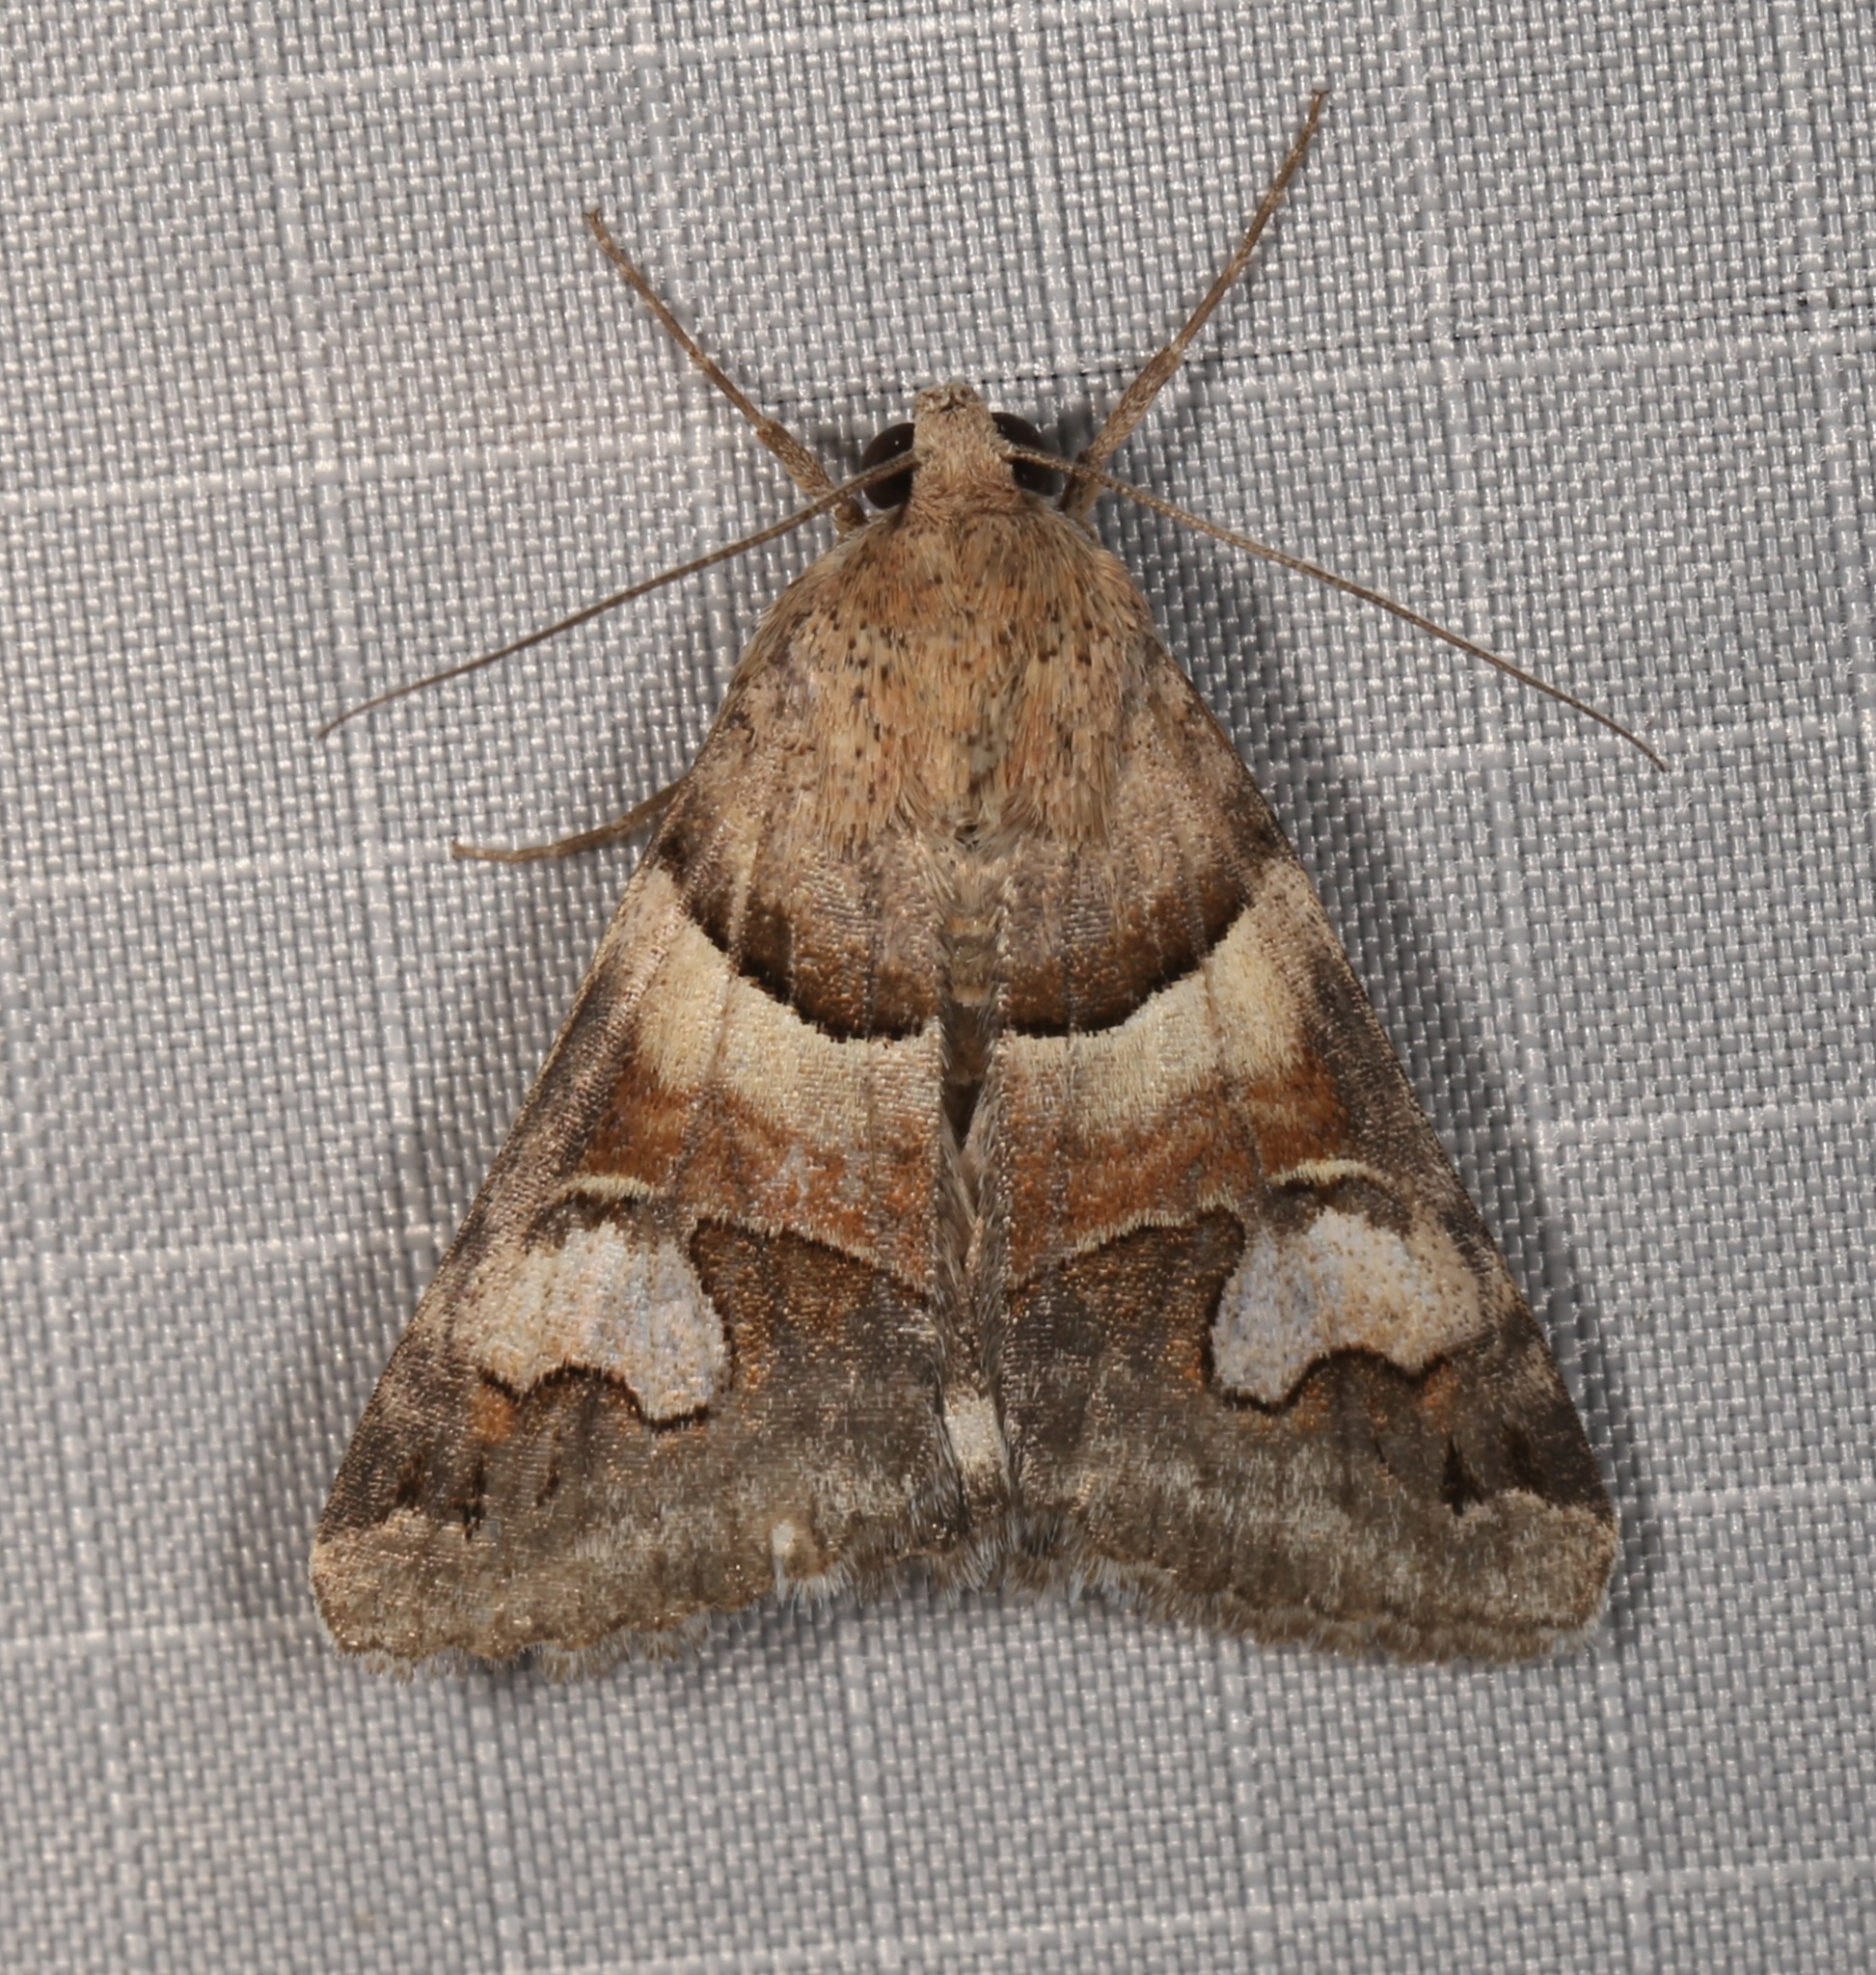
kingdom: Animalia
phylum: Arthropoda
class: Insecta
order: Lepidoptera
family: Erebidae
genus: Drasteria
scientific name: Drasteria pallescens
